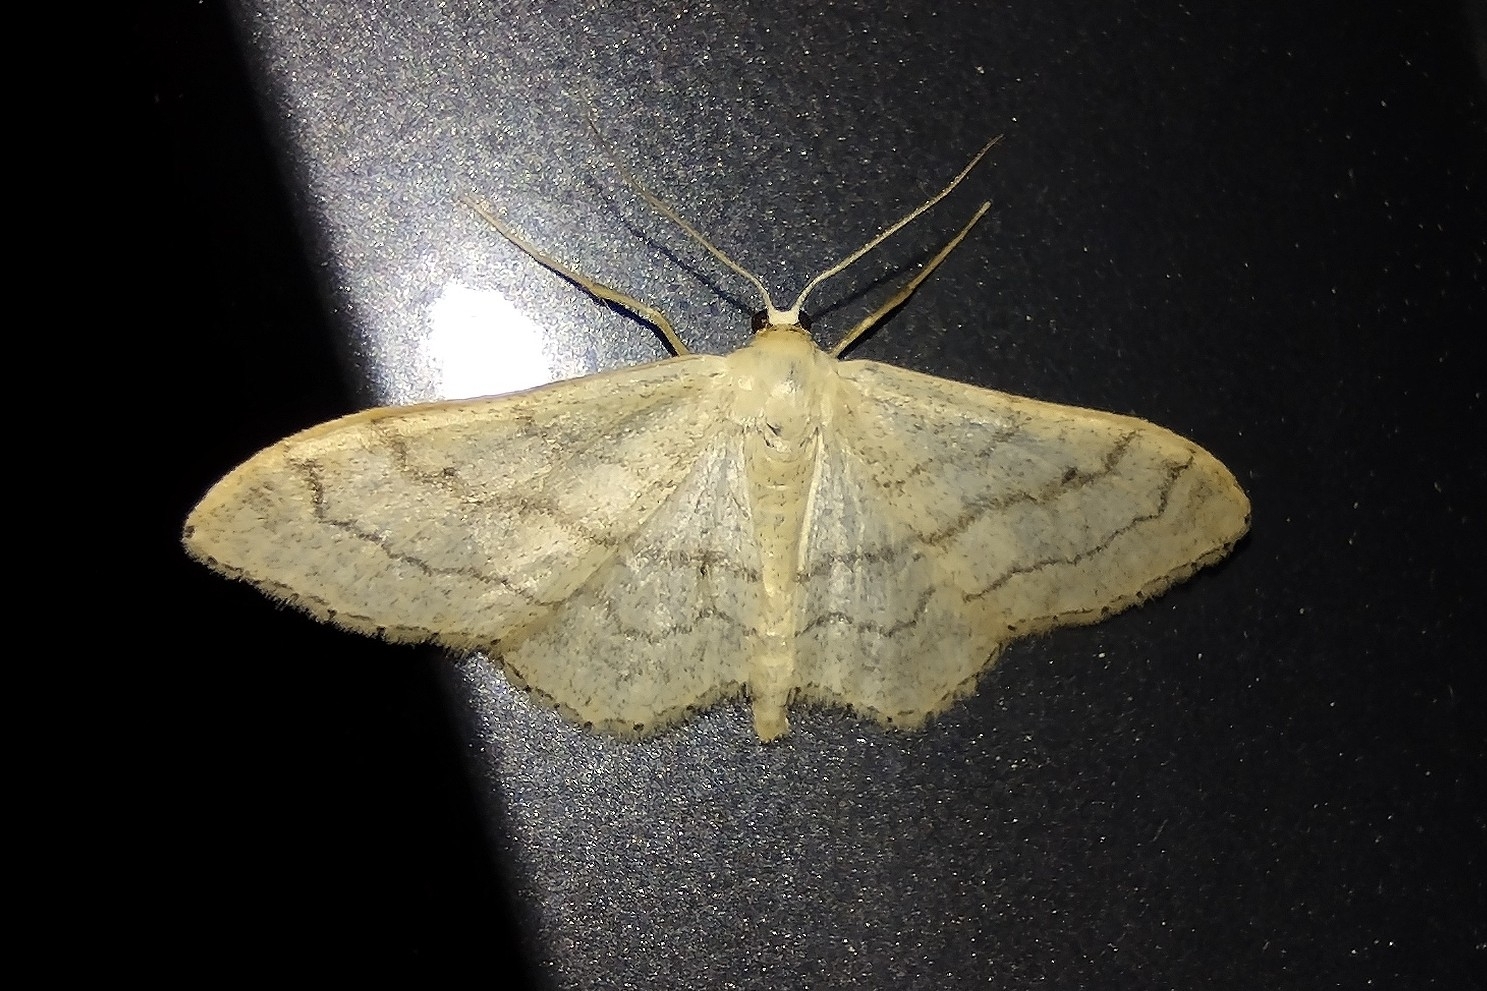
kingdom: Animalia
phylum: Arthropoda
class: Insecta
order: Lepidoptera
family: Geometridae
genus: Idaea
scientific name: Idaea aversata
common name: Riband wave
